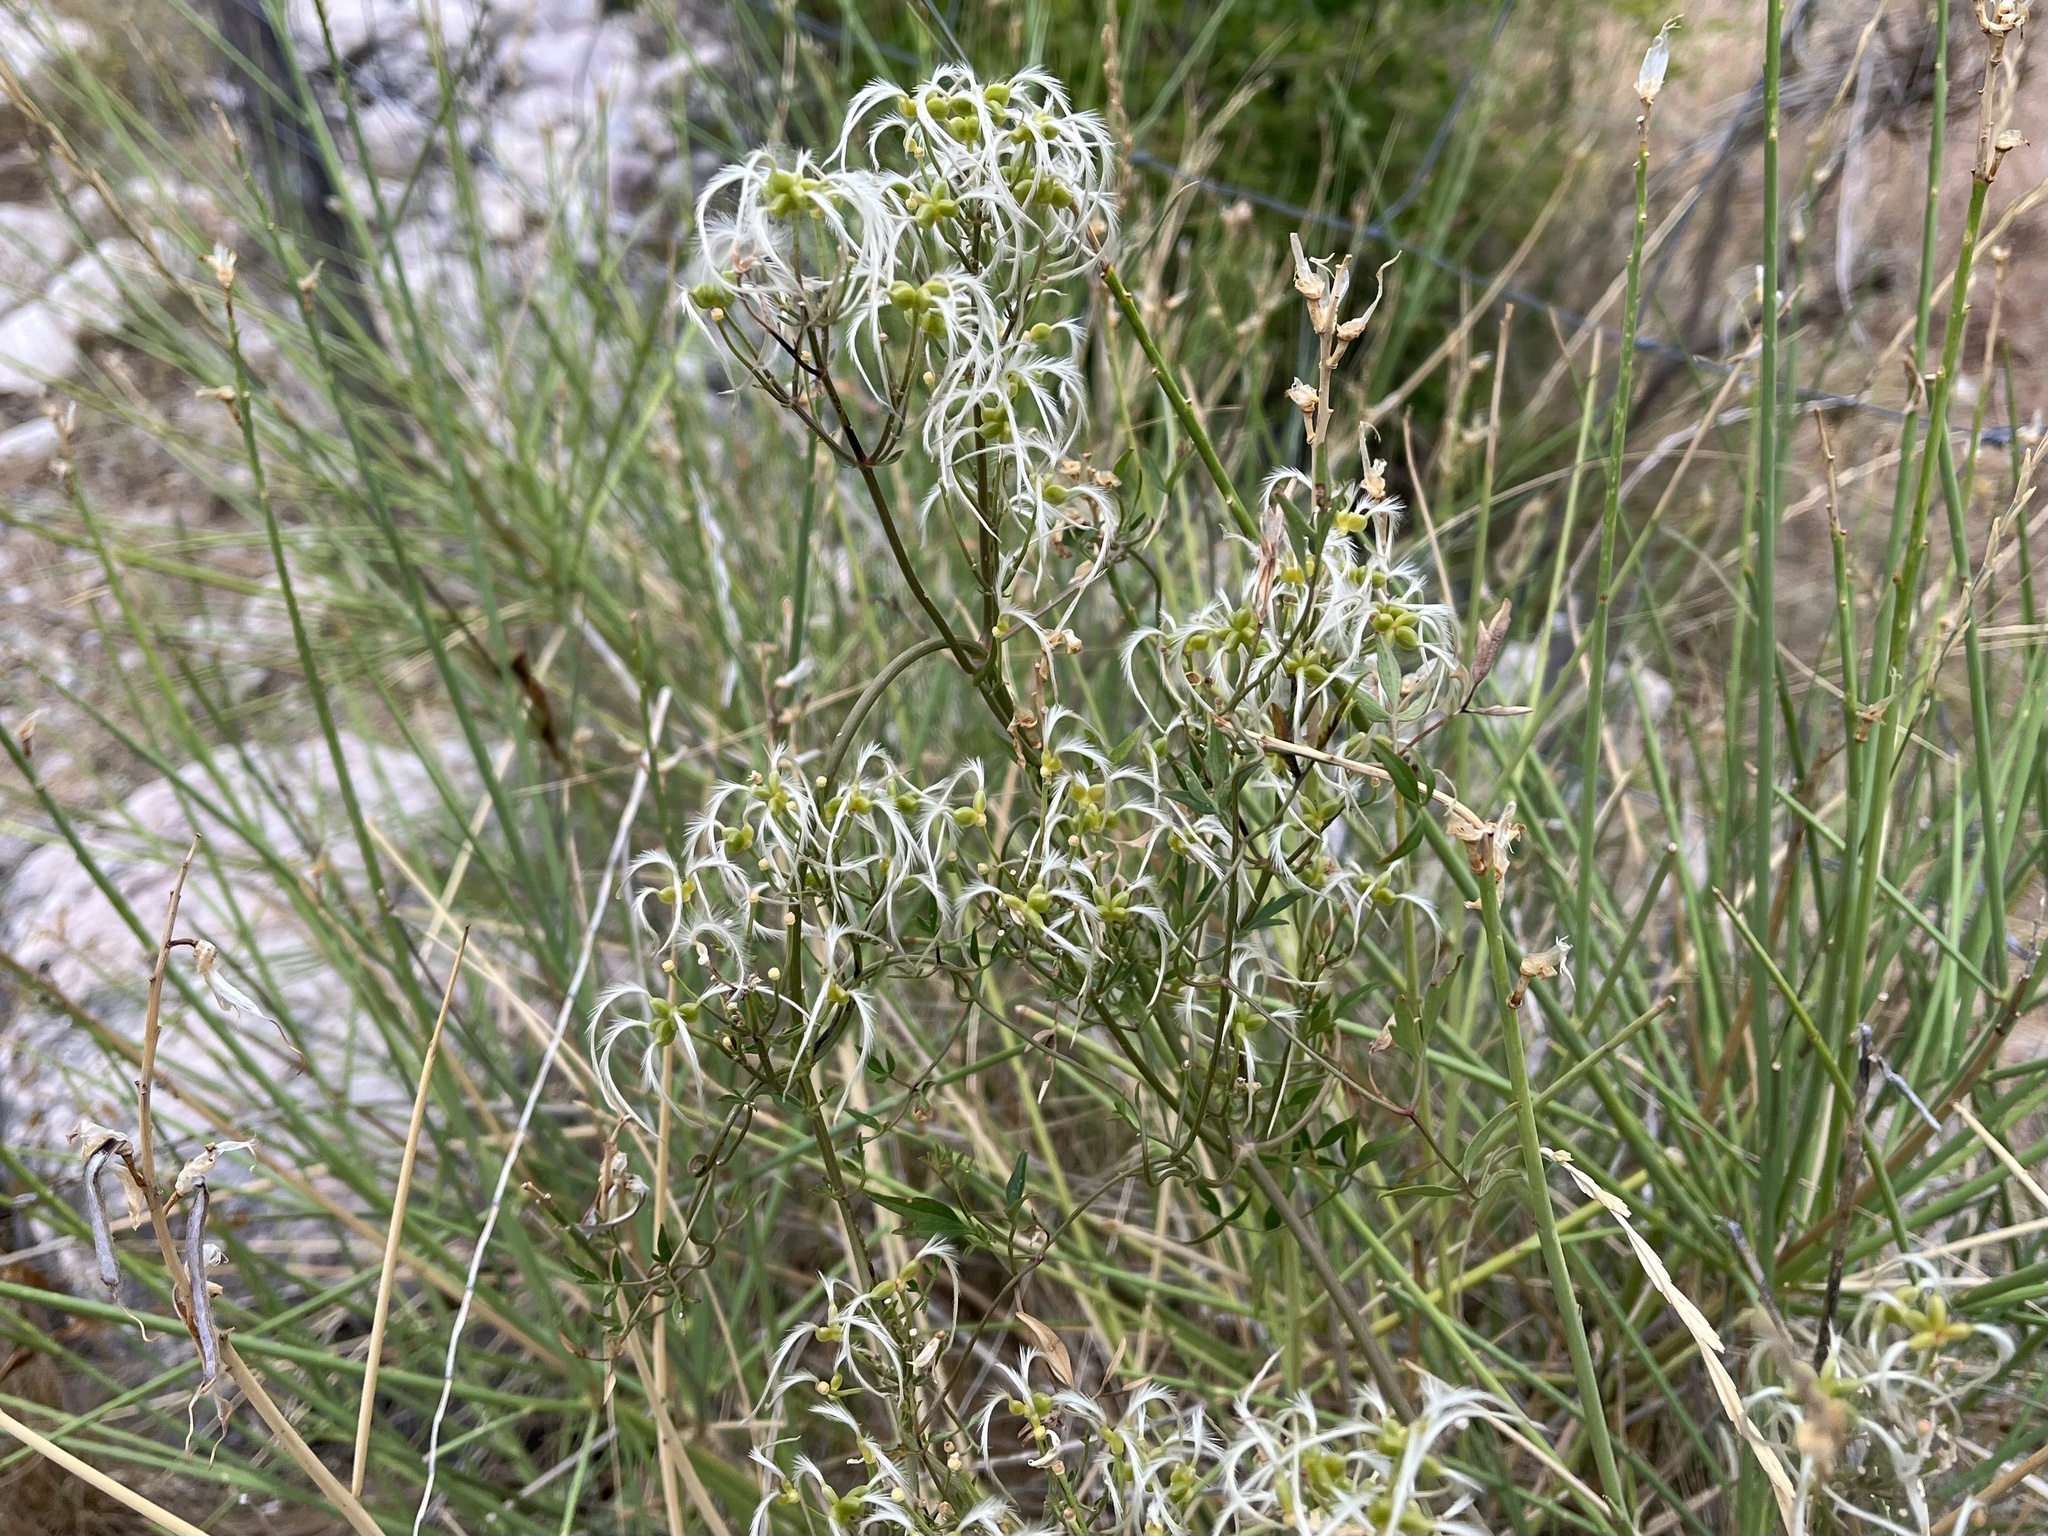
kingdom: Plantae
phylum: Tracheophyta
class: Magnoliopsida
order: Ranunculales
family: Ranunculaceae
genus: Clematis
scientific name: Clematis flammula
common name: Virgin's-bower
